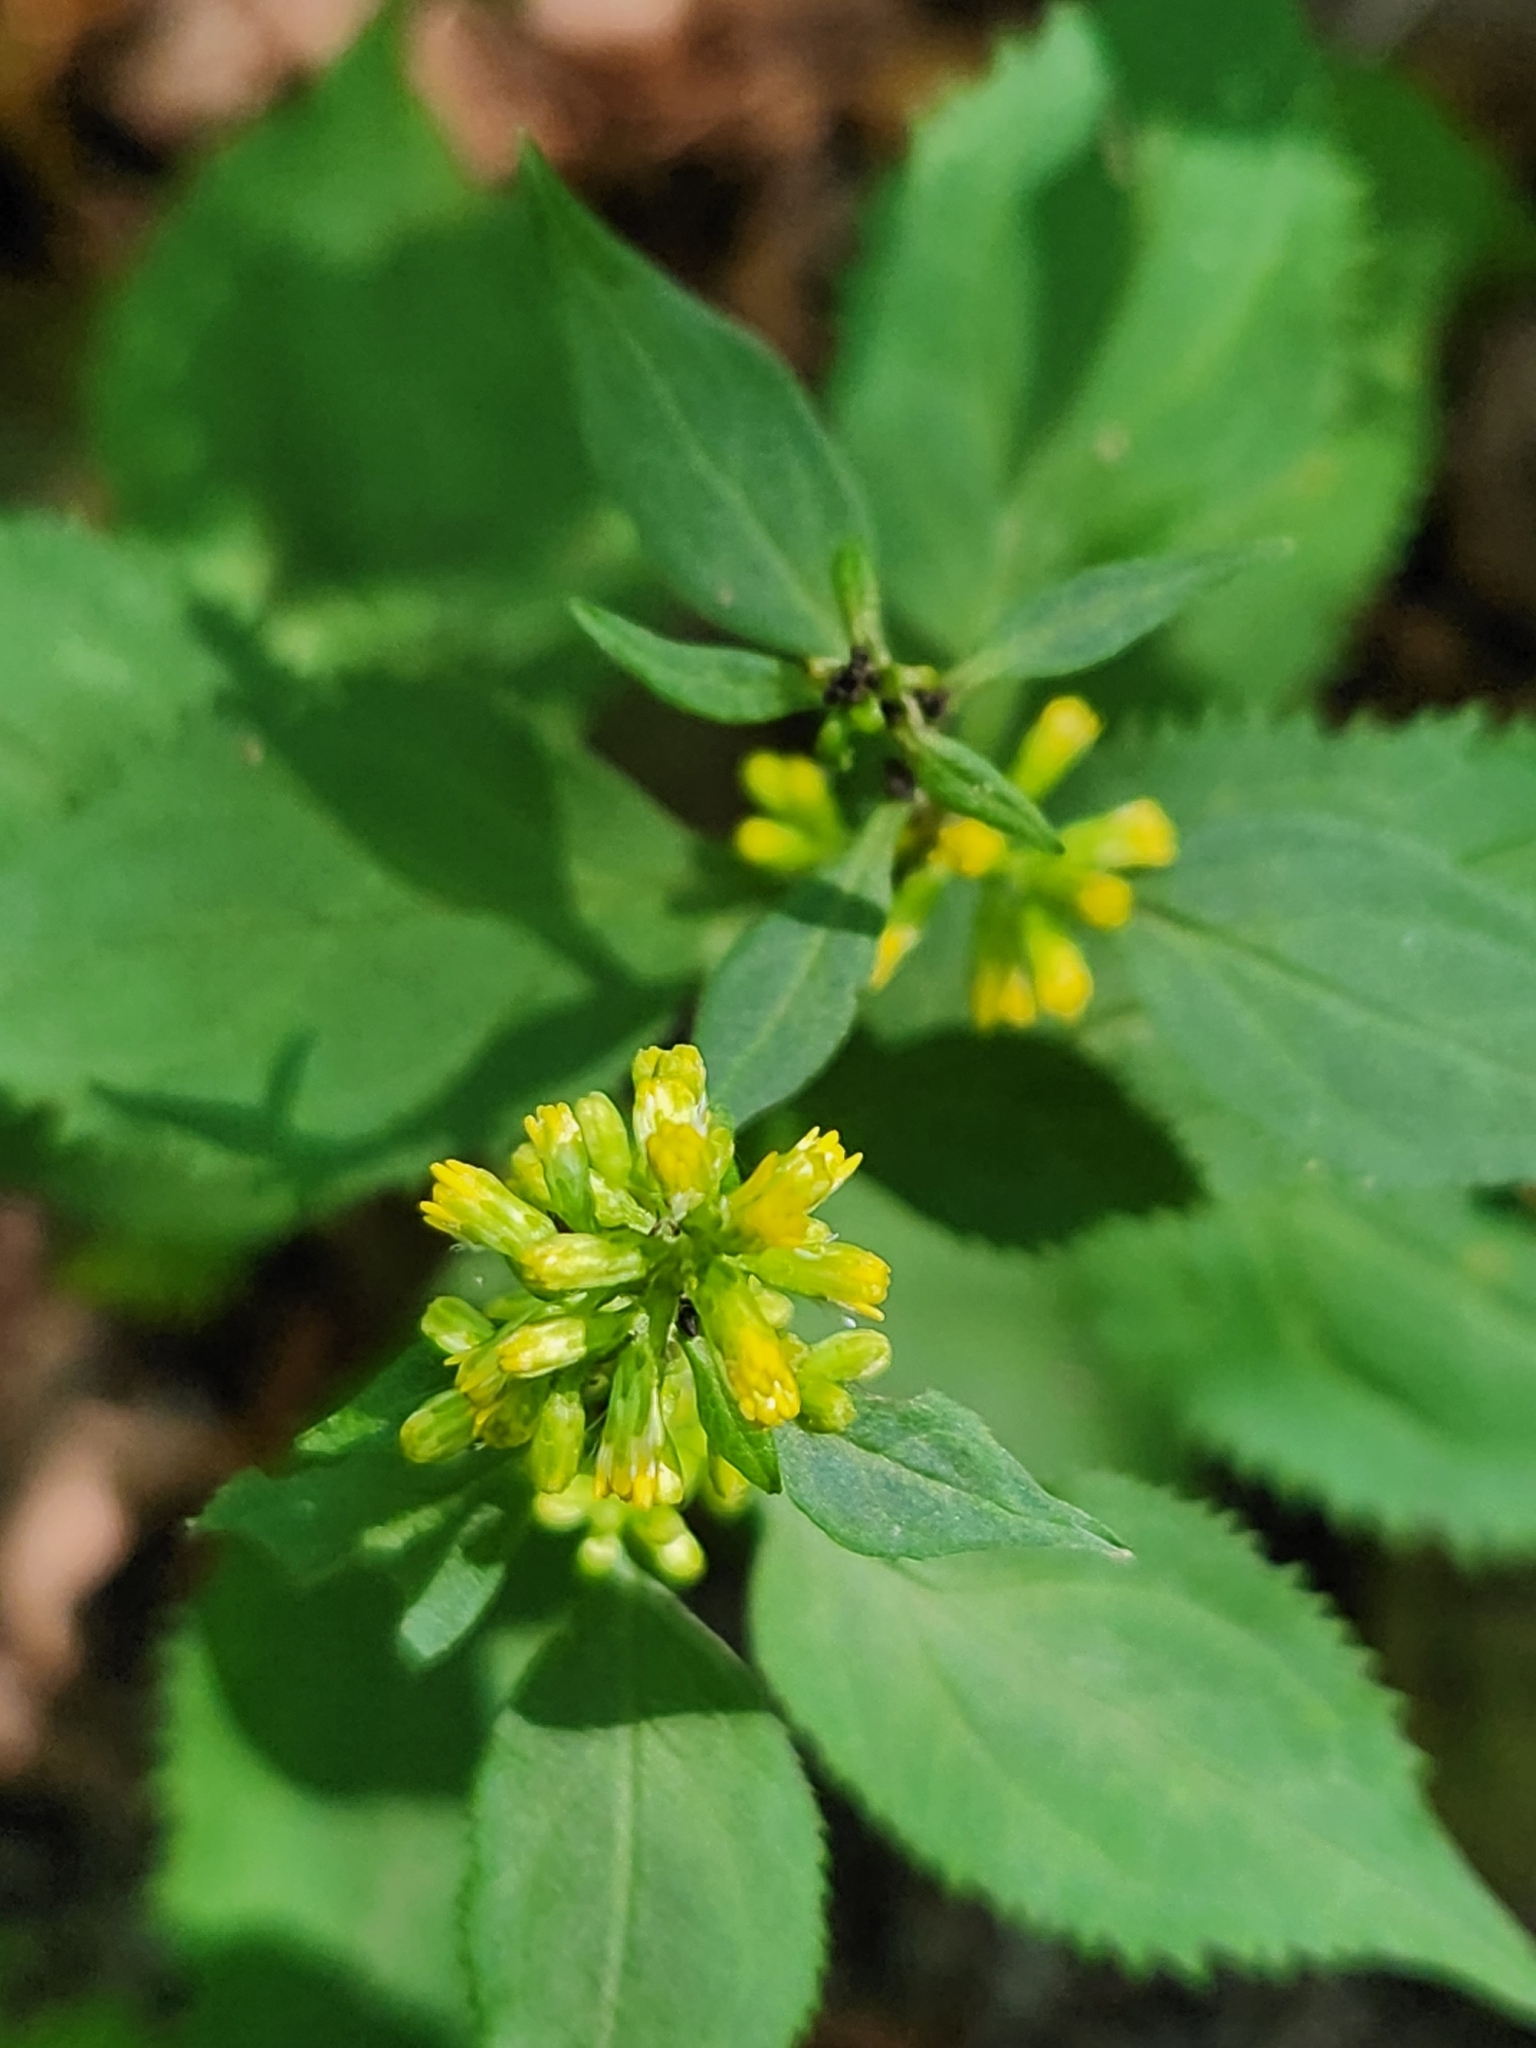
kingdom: Plantae
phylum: Tracheophyta
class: Magnoliopsida
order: Asterales
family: Asteraceae
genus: Solidago
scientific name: Solidago flexicaulis
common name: Zig-zag goldenrod
